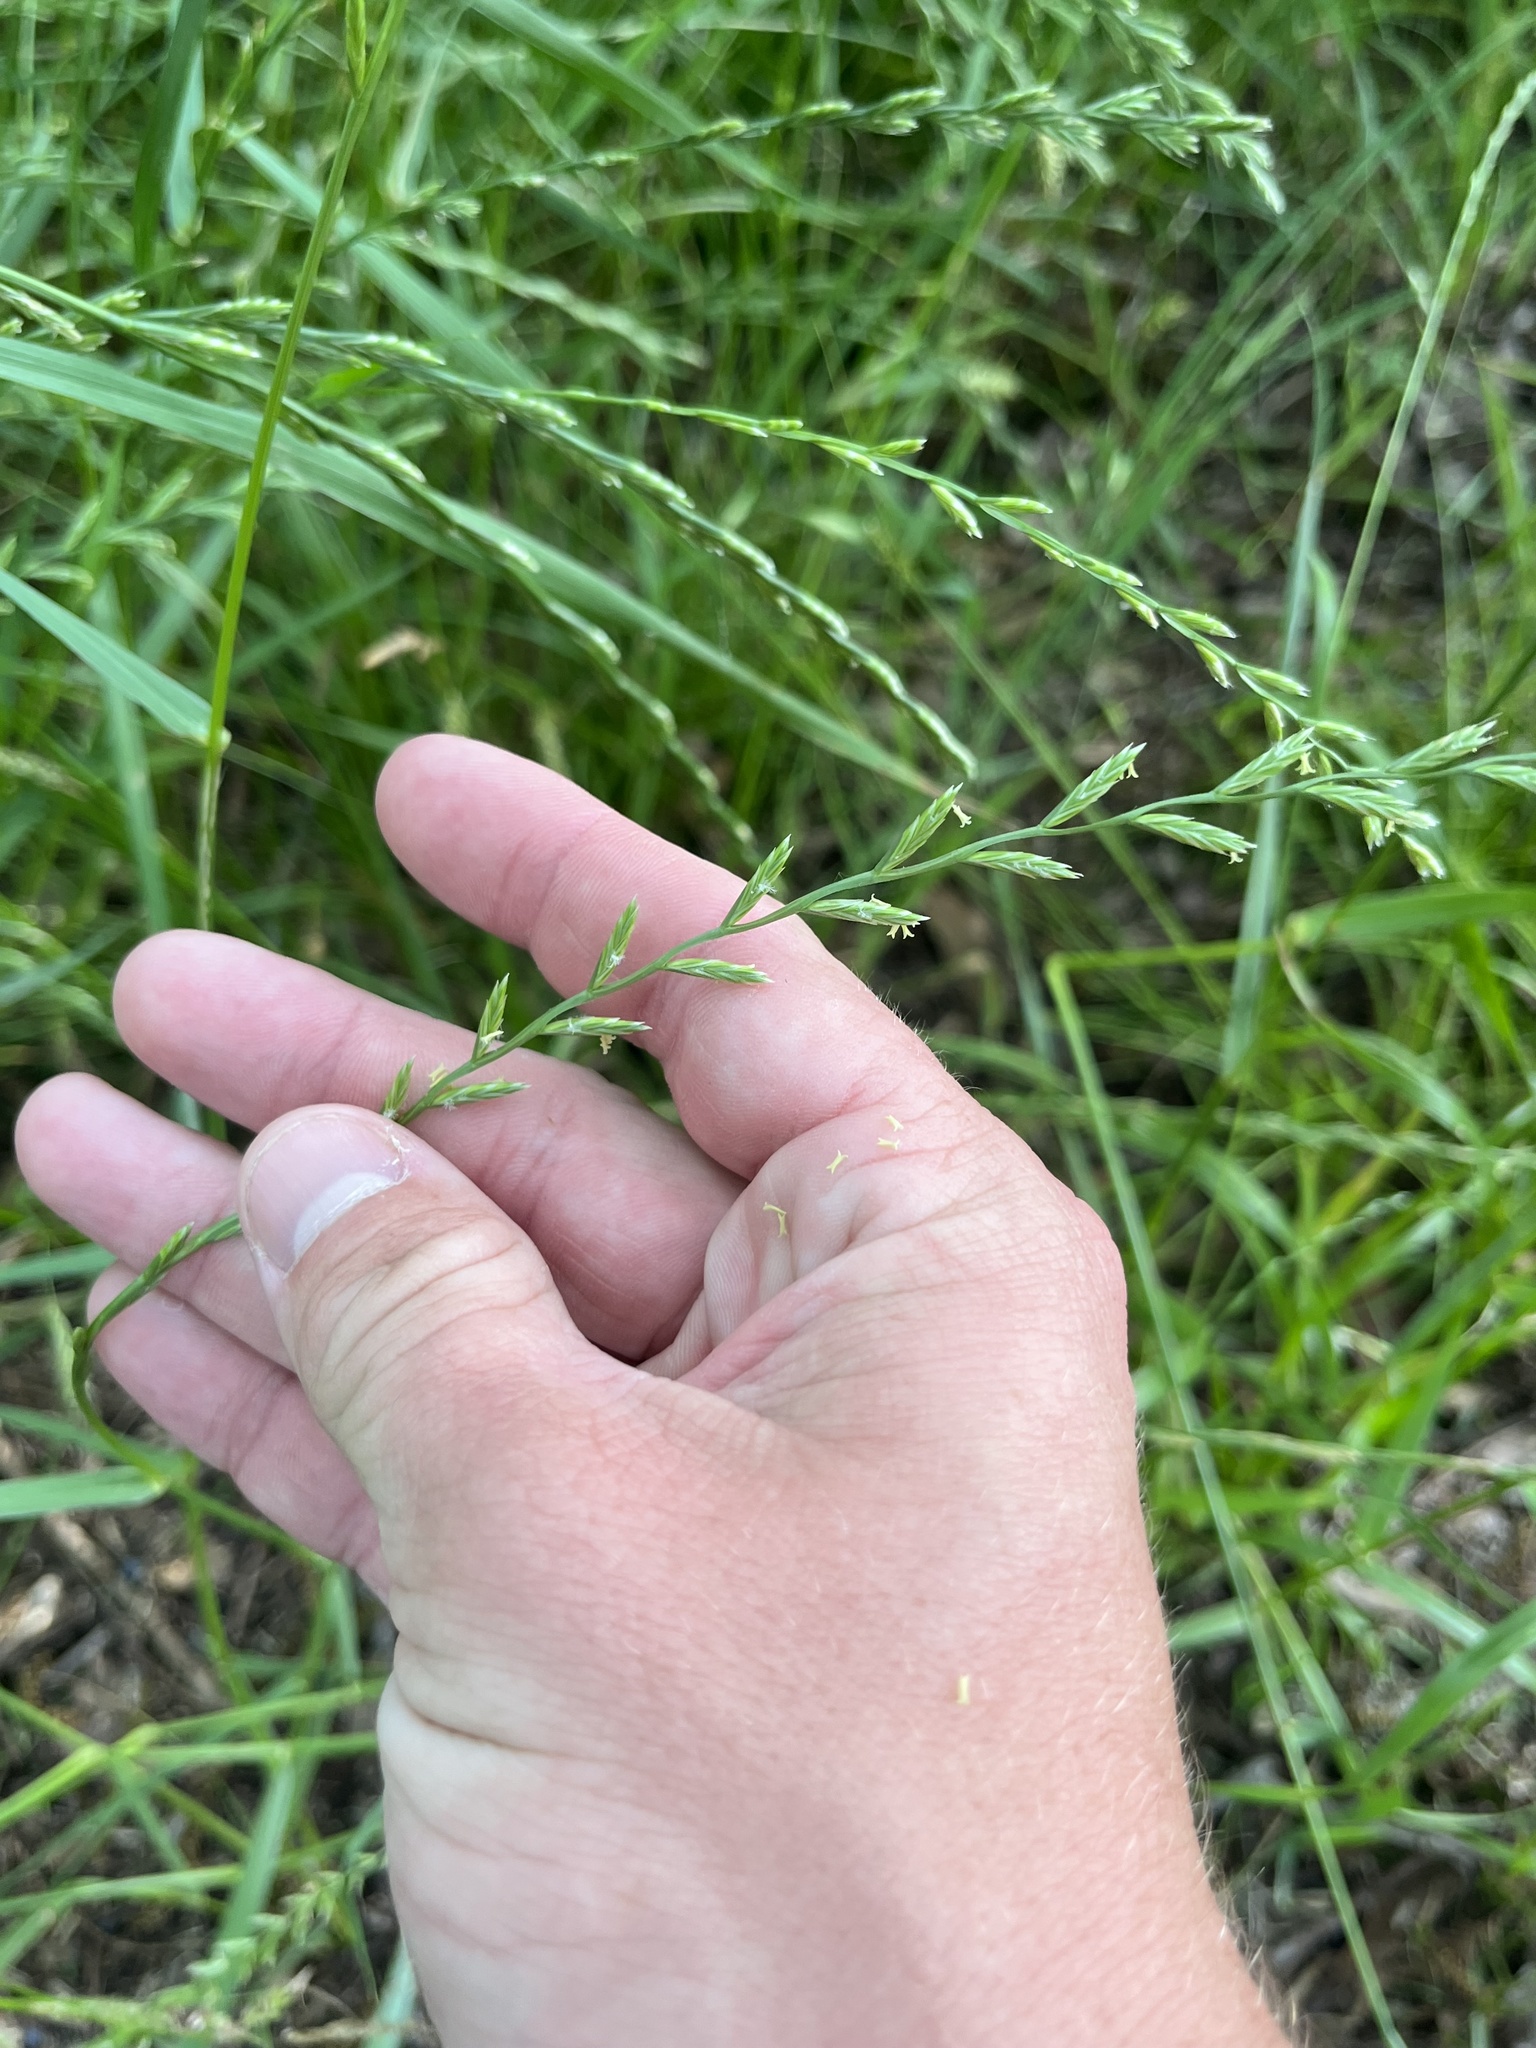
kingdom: Plantae
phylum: Tracheophyta
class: Liliopsida
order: Poales
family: Poaceae
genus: Lolium
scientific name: Lolium perenne
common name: Perennial ryegrass
